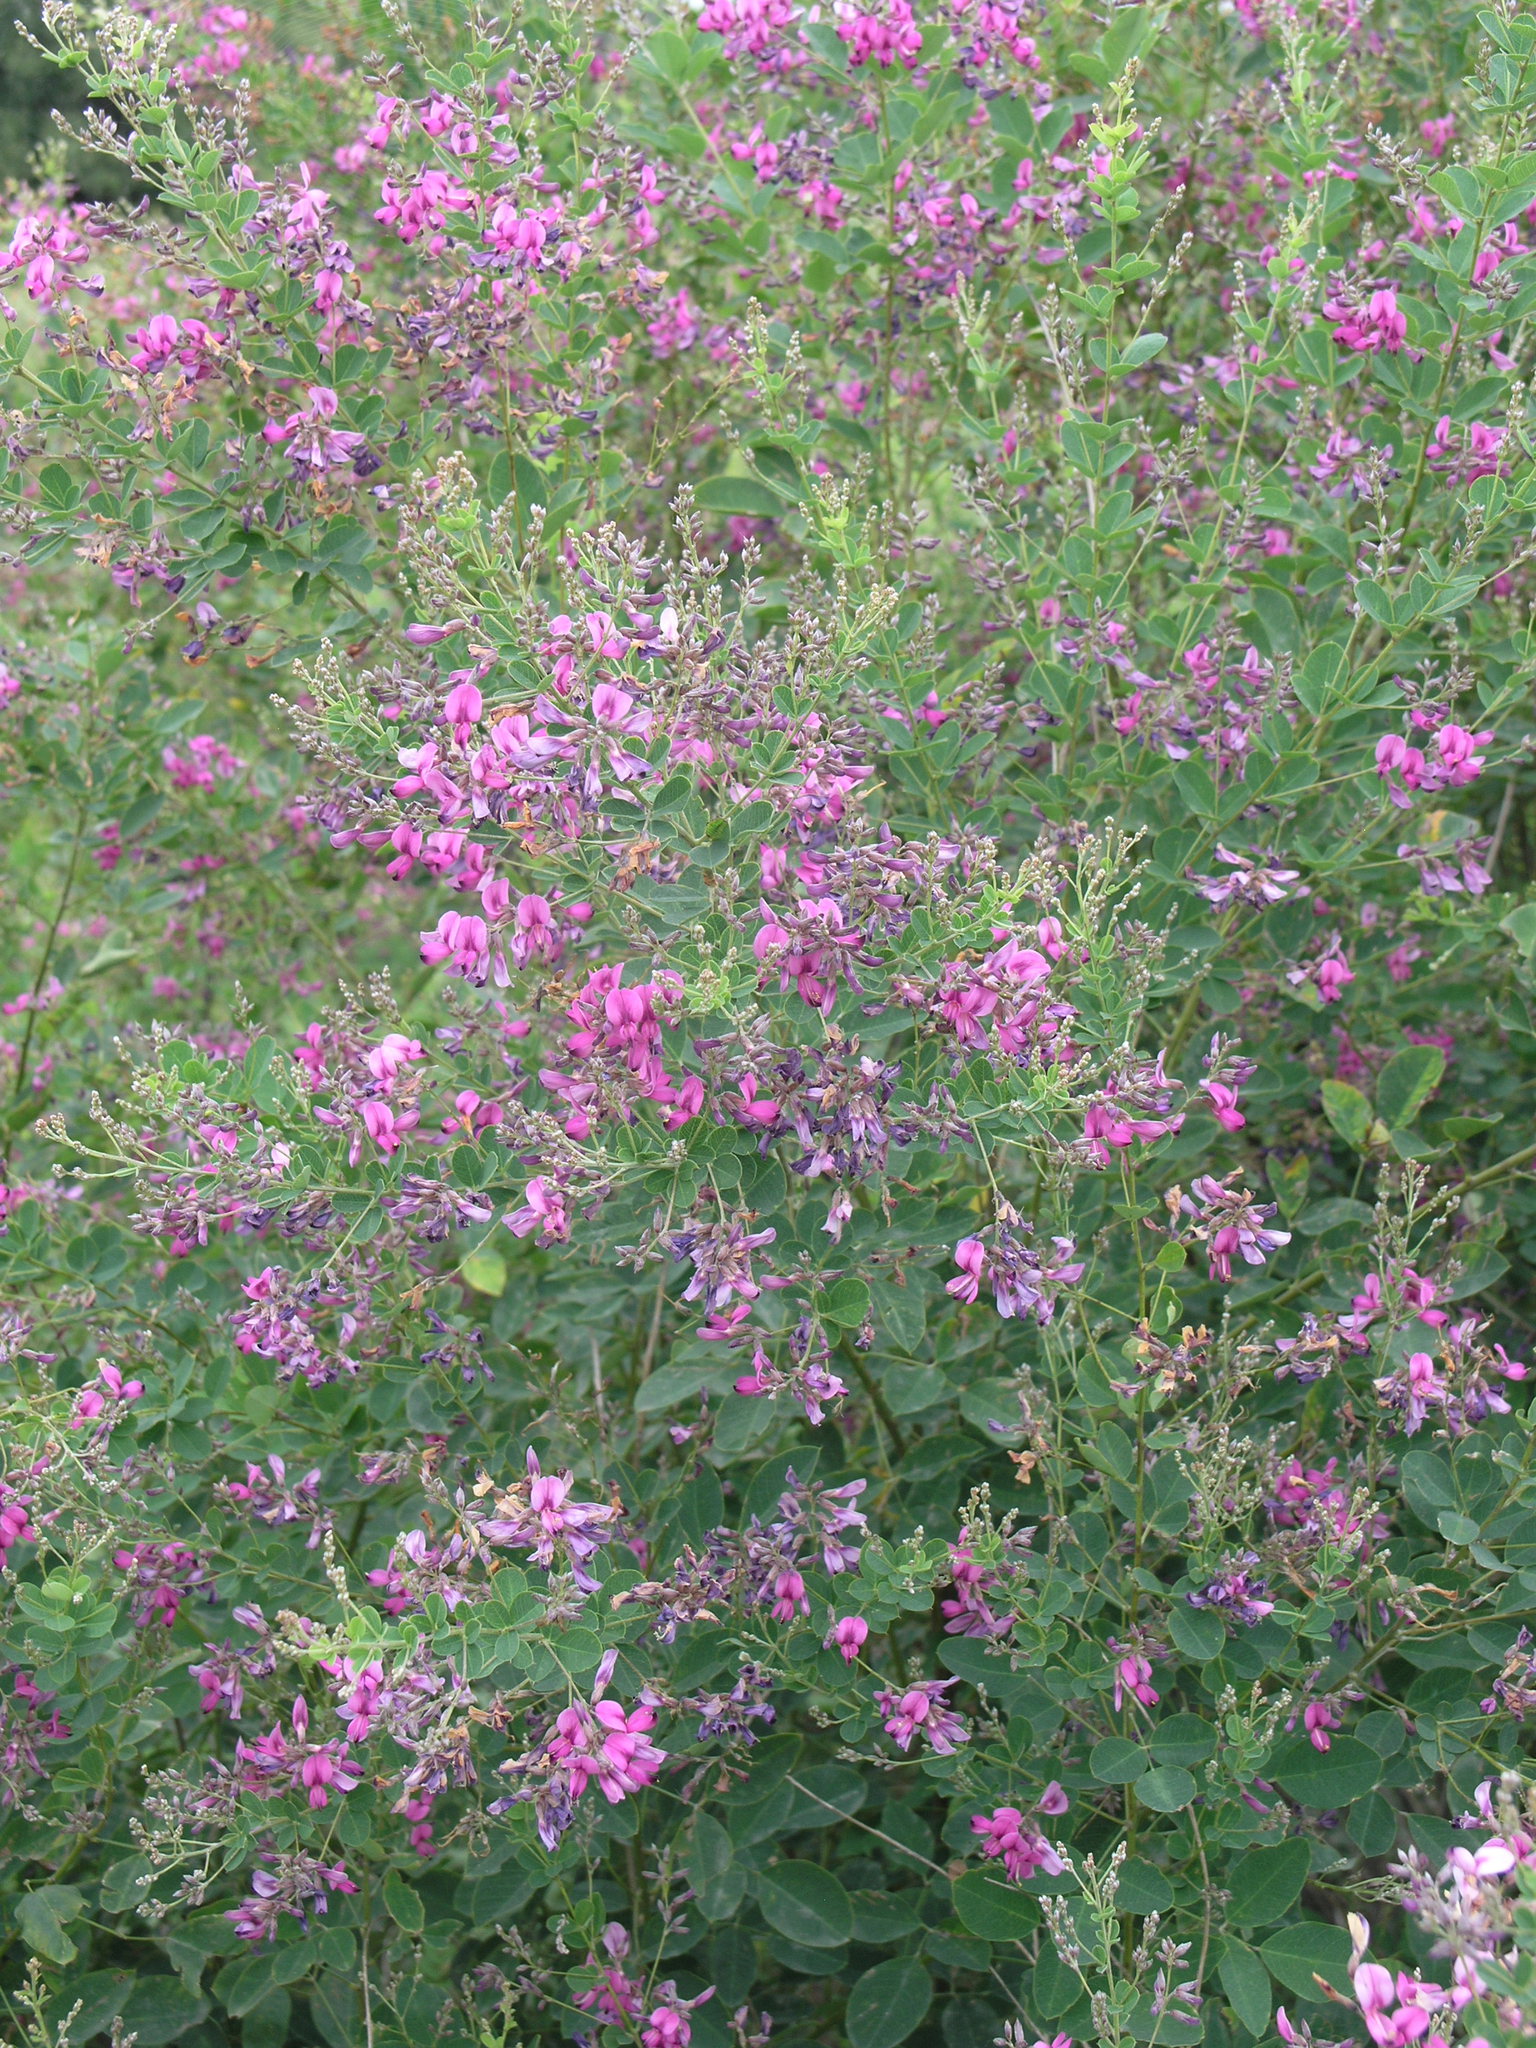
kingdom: Plantae
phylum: Tracheophyta
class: Magnoliopsida
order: Fabales
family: Fabaceae
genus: Lespedeza
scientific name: Lespedeza bicolor
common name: Shrub lespedeza
